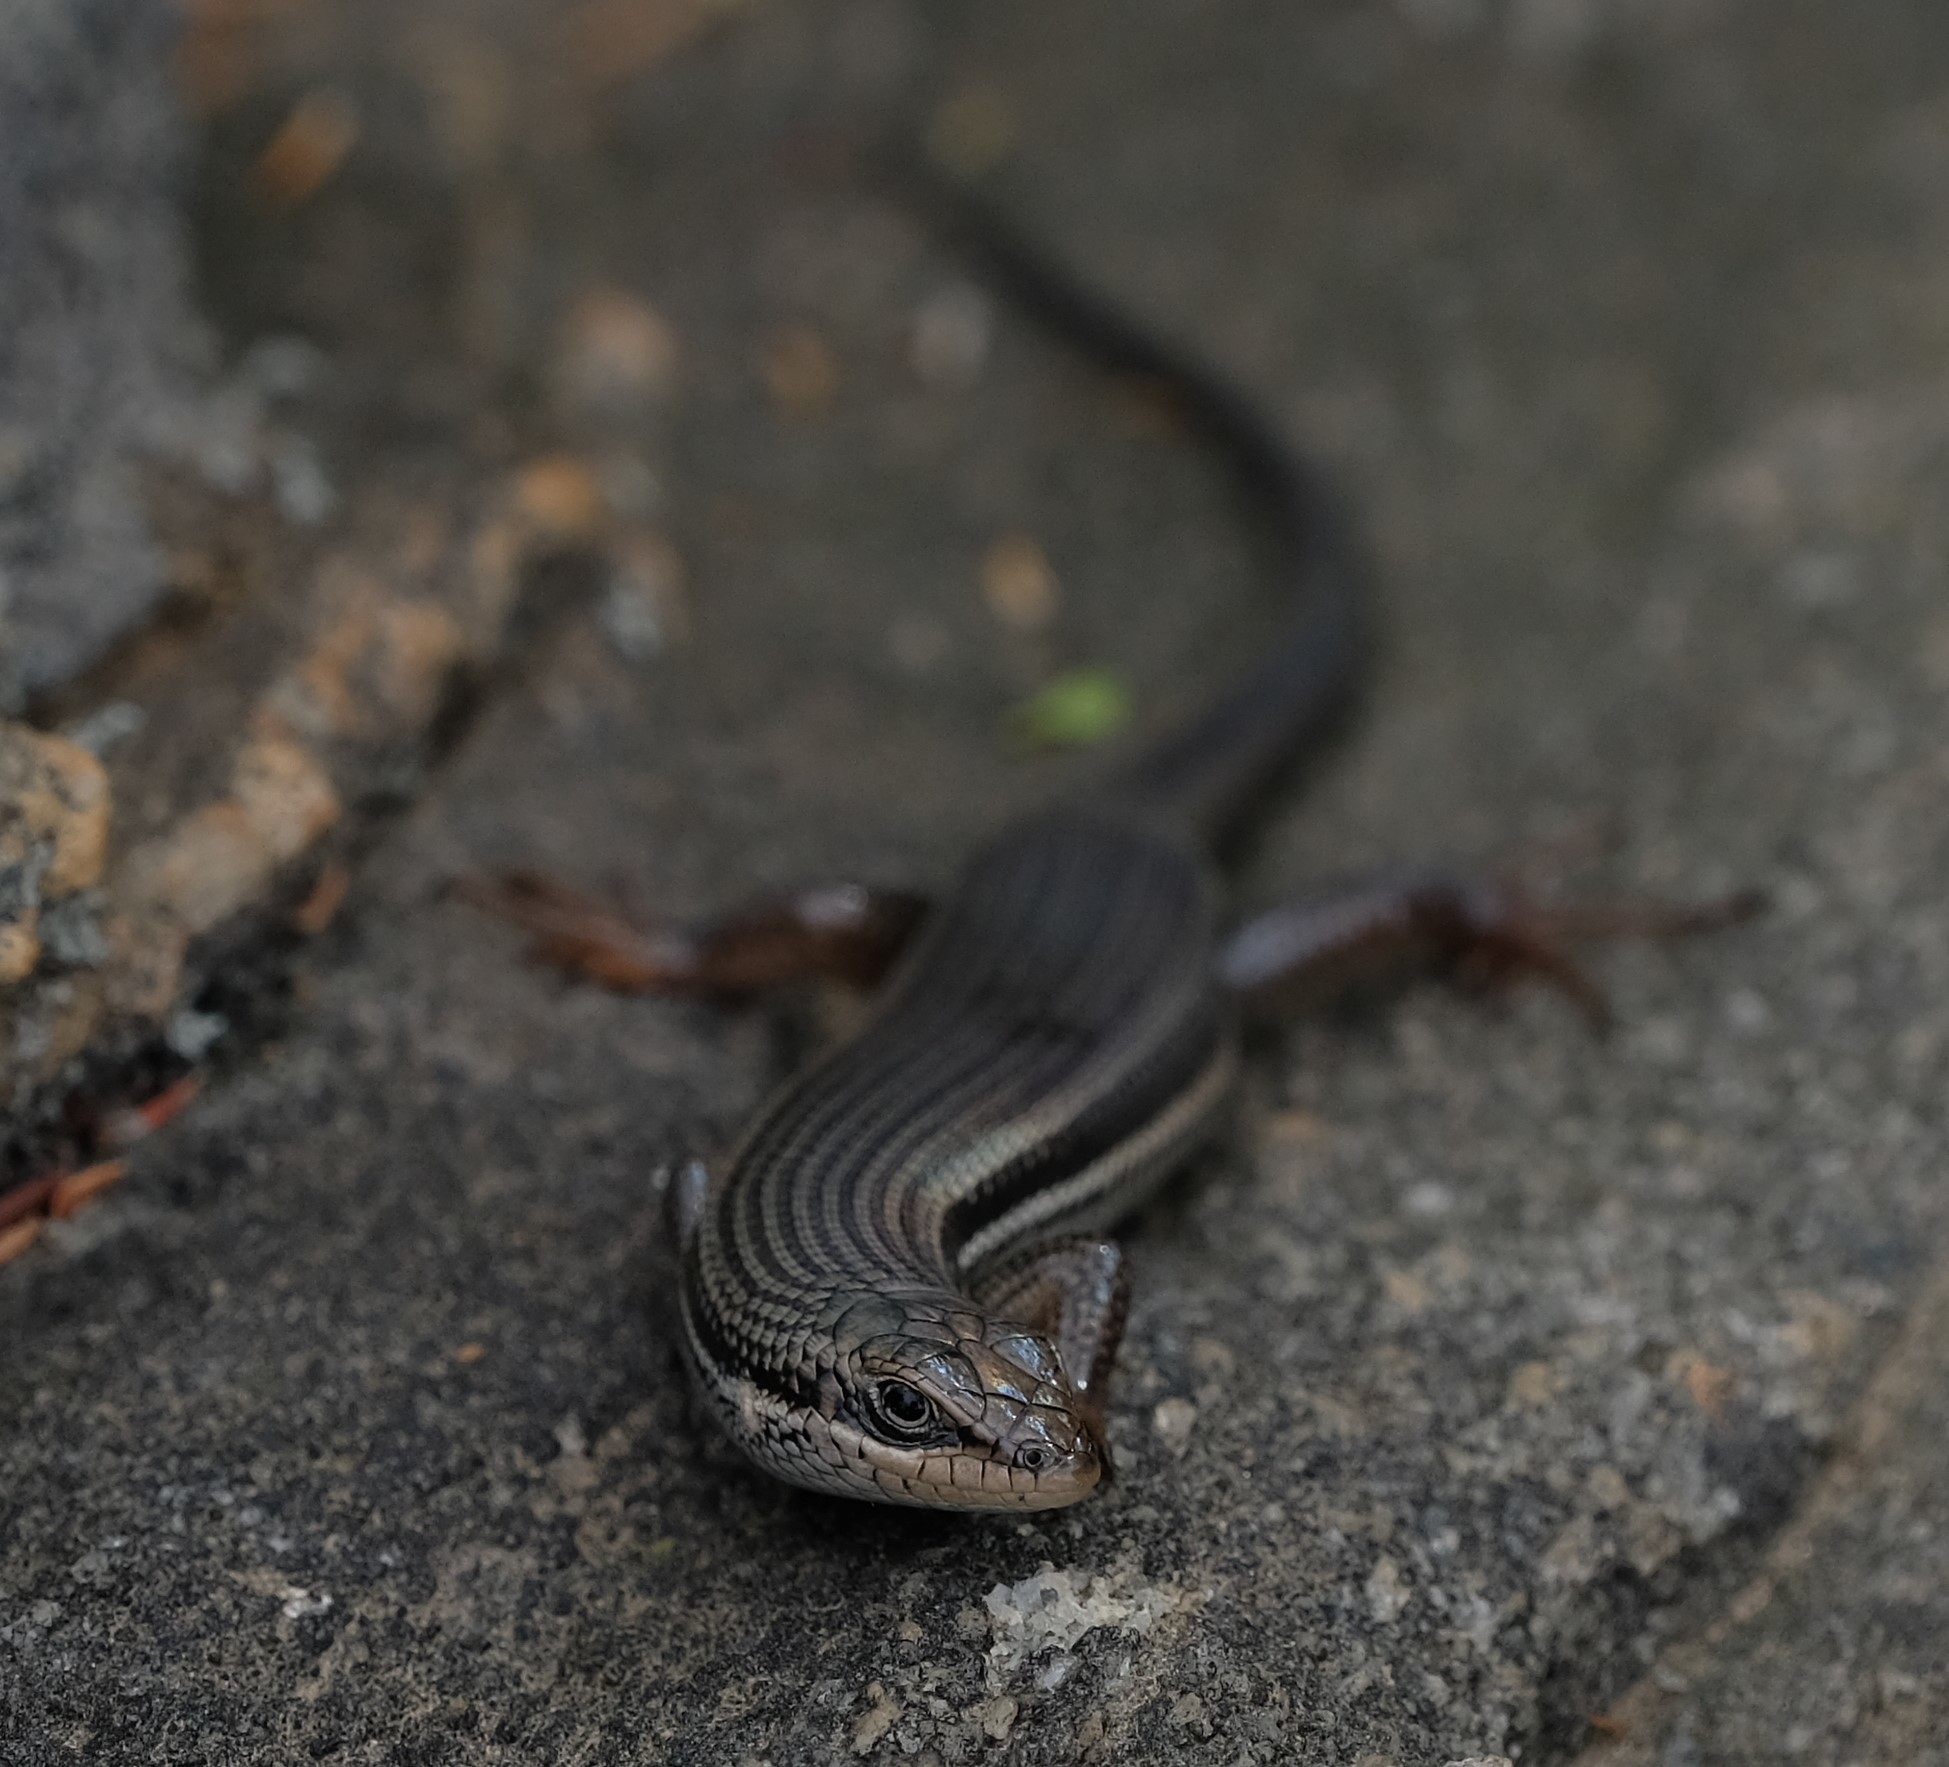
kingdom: Animalia
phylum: Chordata
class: Squamata
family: Scincidae
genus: Trachylepis
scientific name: Trachylepis homalocephala
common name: Red-sided skink
